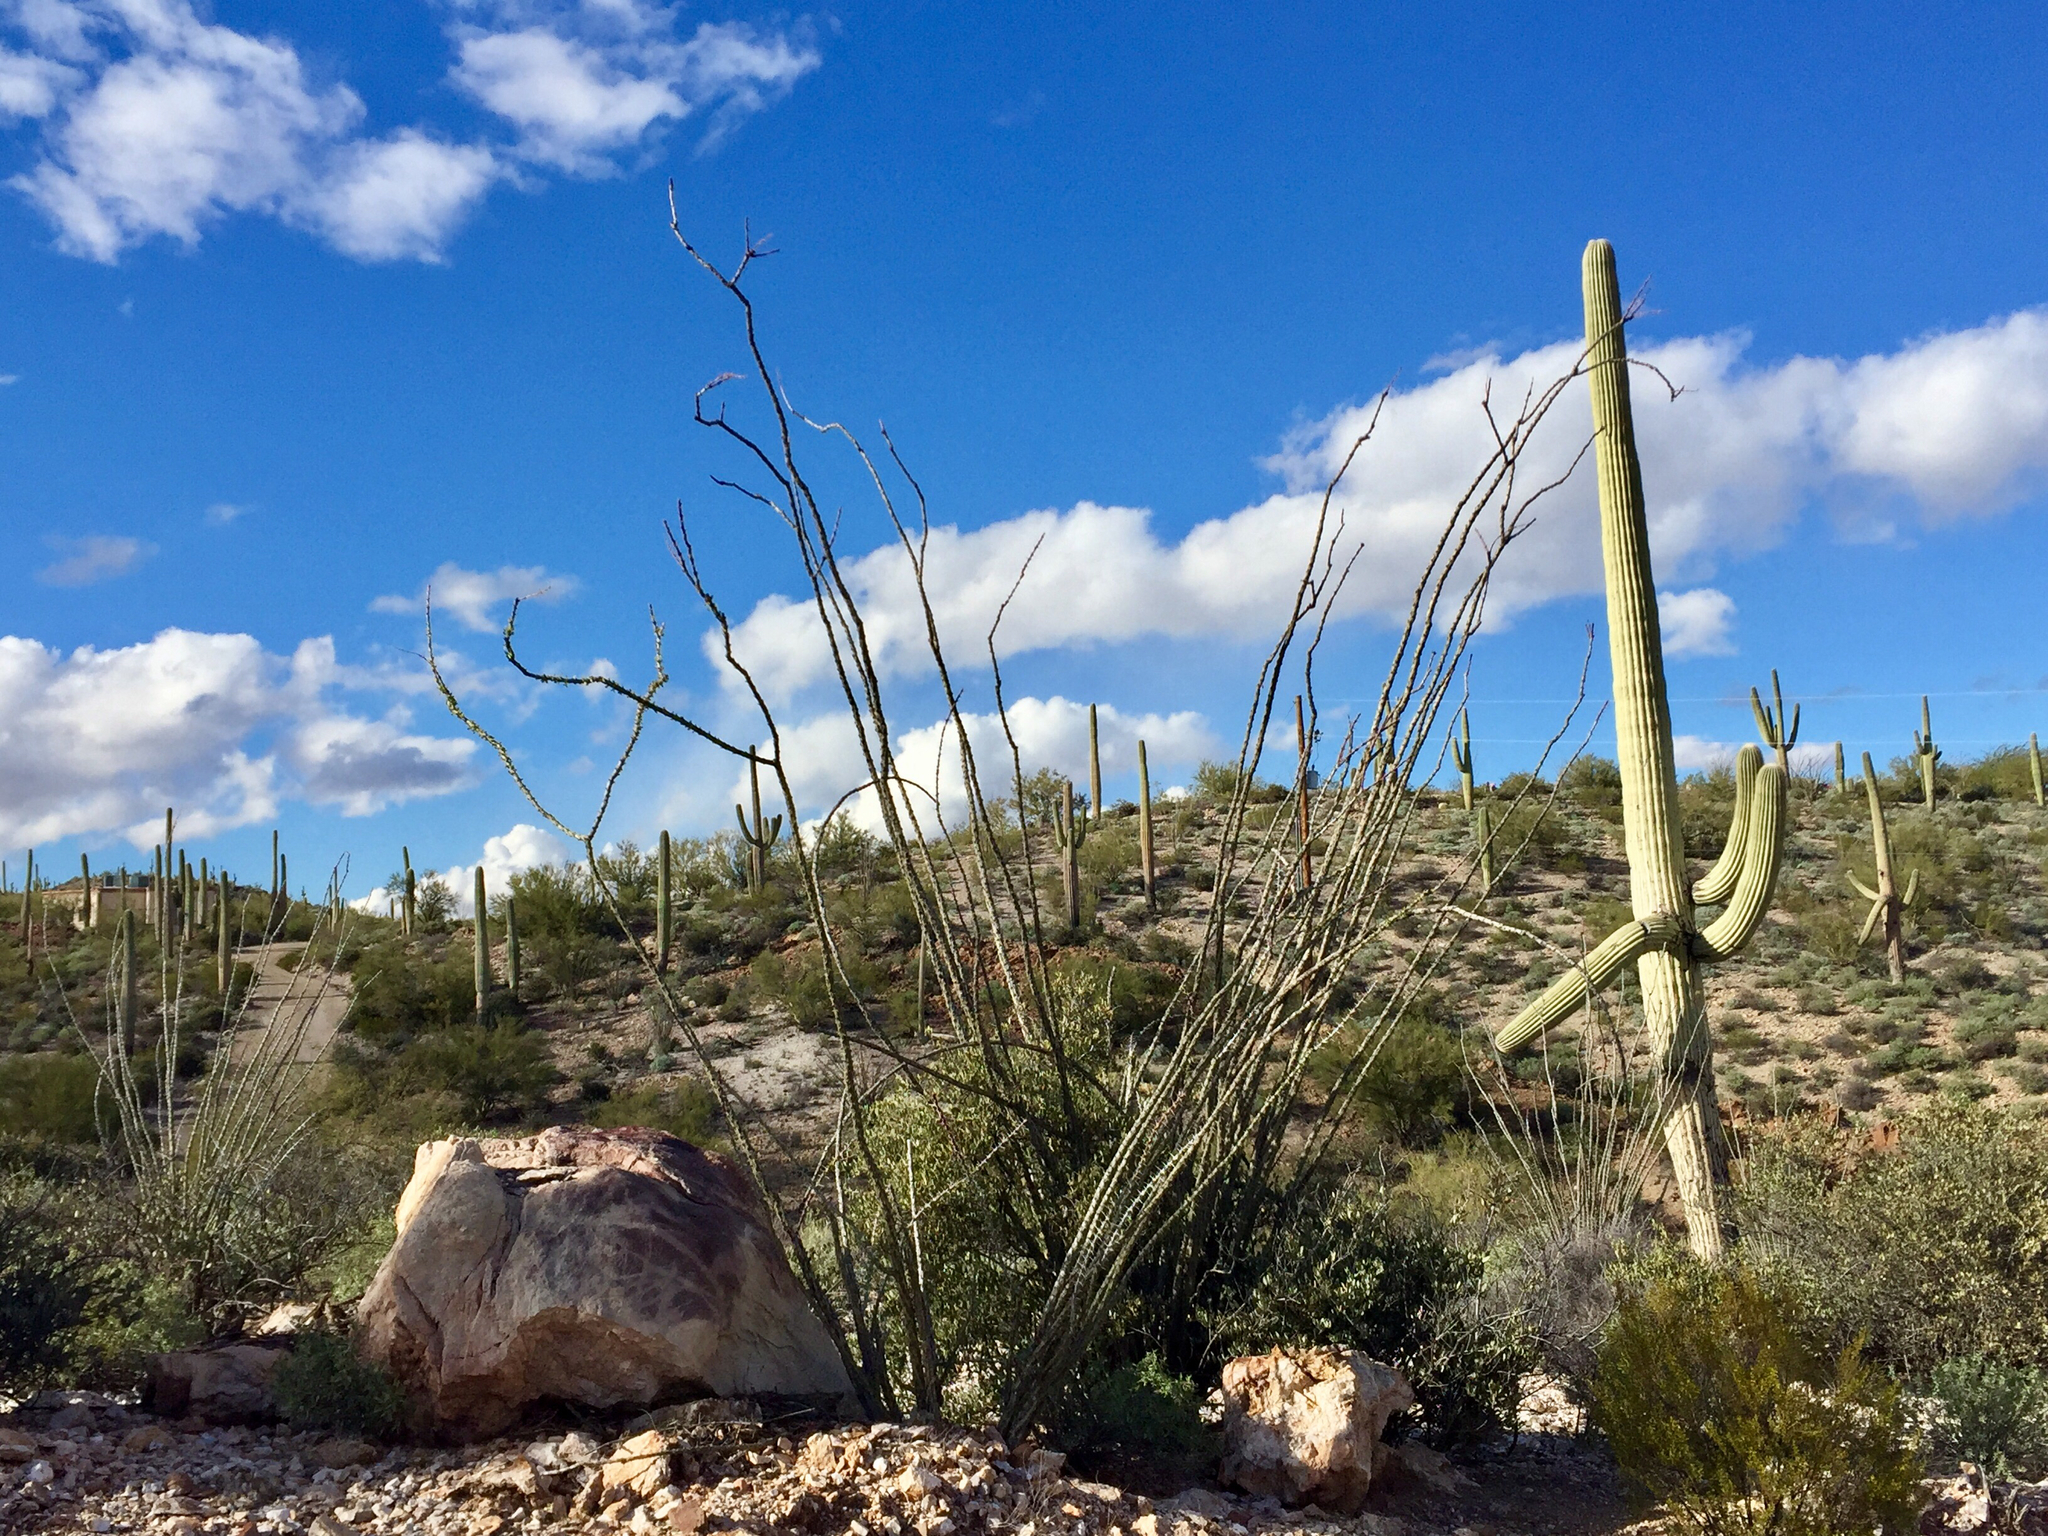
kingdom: Plantae
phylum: Tracheophyta
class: Magnoliopsida
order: Ericales
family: Fouquieriaceae
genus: Fouquieria
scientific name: Fouquieria splendens
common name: Vine-cactus
